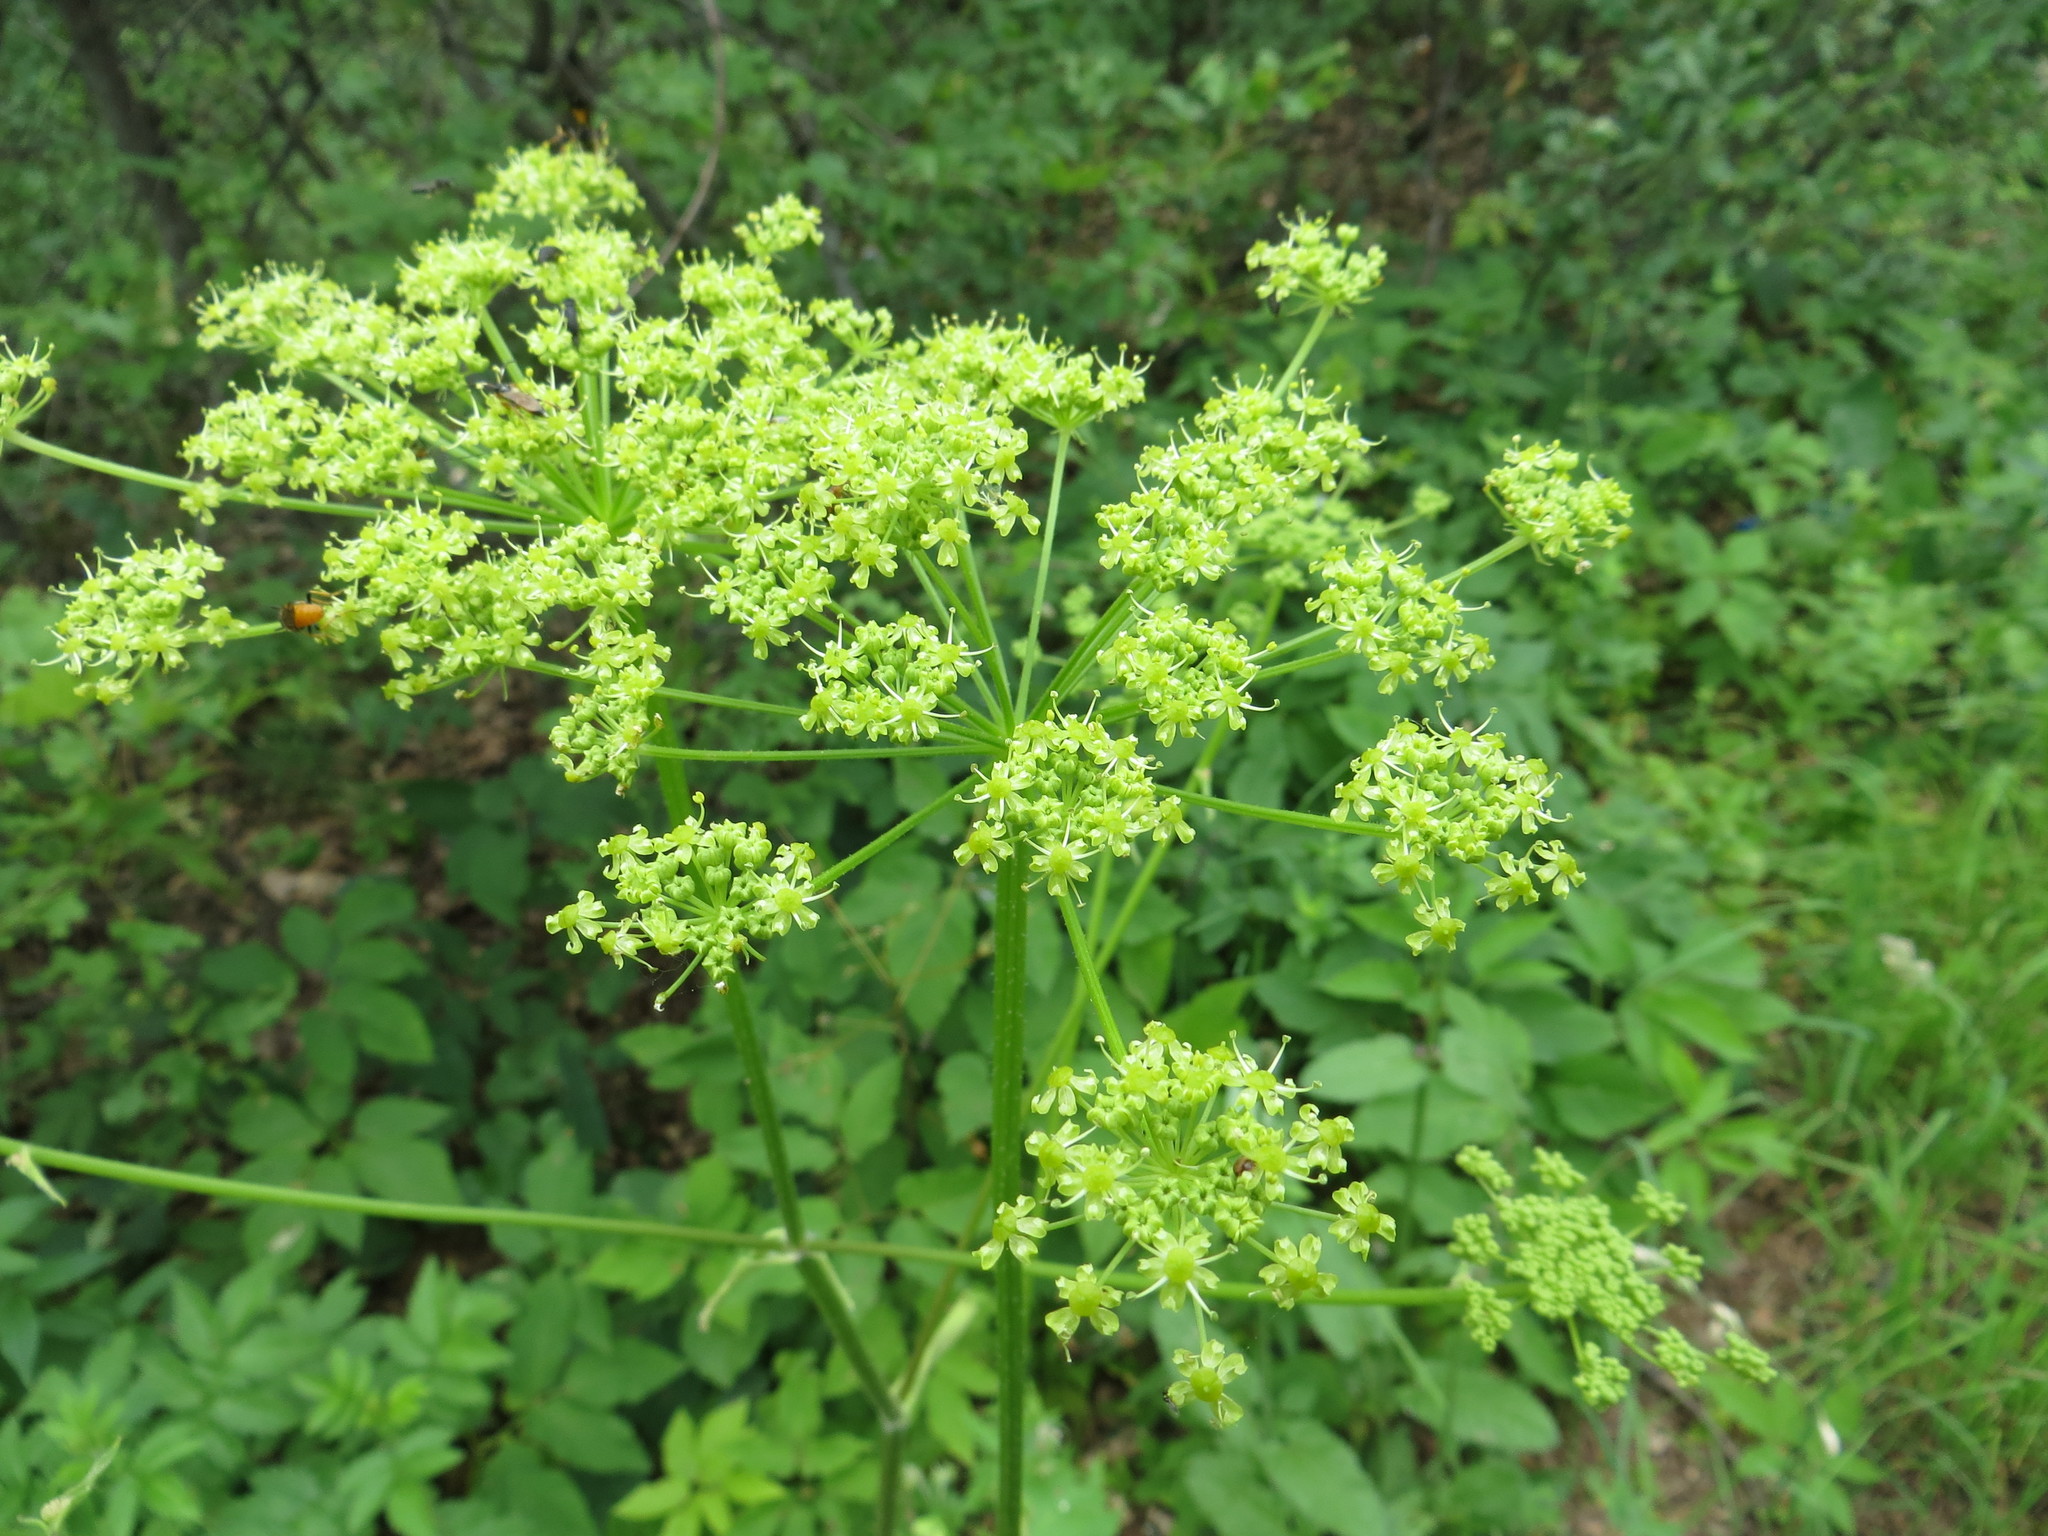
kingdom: Plantae
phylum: Tracheophyta
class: Magnoliopsida
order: Apiales
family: Apiaceae
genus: Heracleum
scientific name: Heracleum sphondylium
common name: Hogweed
